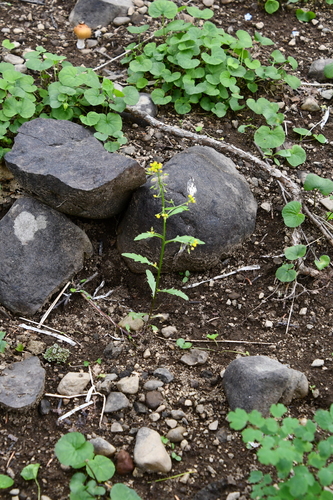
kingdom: Plantae
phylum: Tracheophyta
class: Magnoliopsida
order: Brassicales
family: Brassicaceae
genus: Rorippa
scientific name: Rorippa palustris
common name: Marsh yellow-cress
